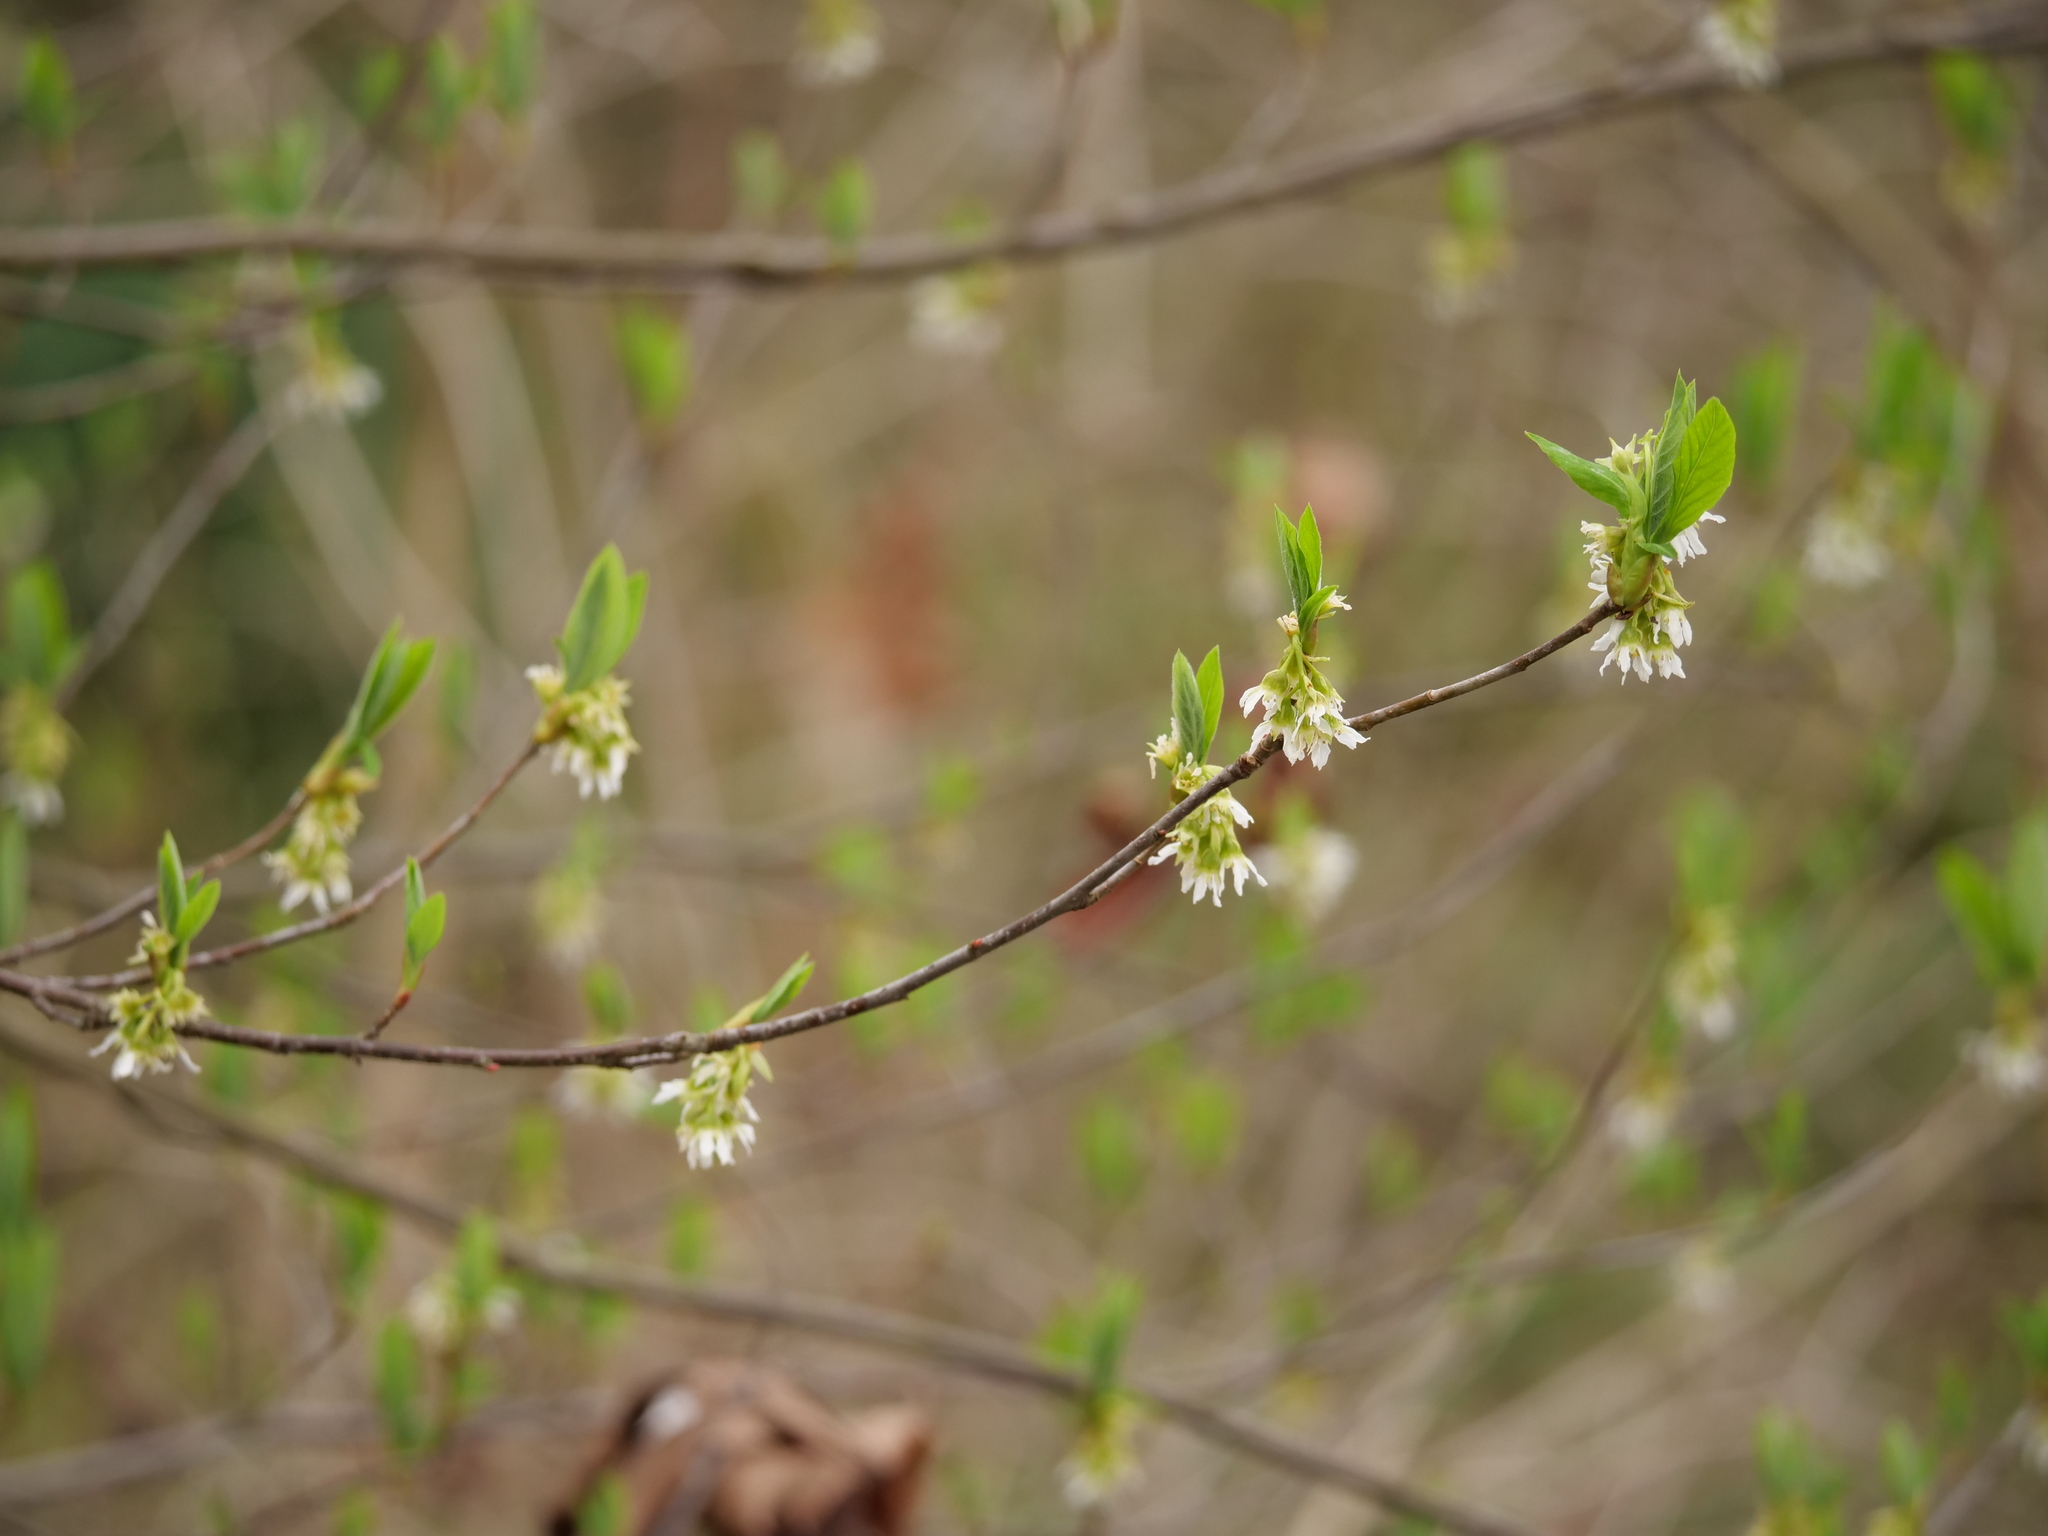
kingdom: Plantae
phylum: Tracheophyta
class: Magnoliopsida
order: Rosales
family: Rosaceae
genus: Oemleria
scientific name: Oemleria cerasiformis
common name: Osoberry
